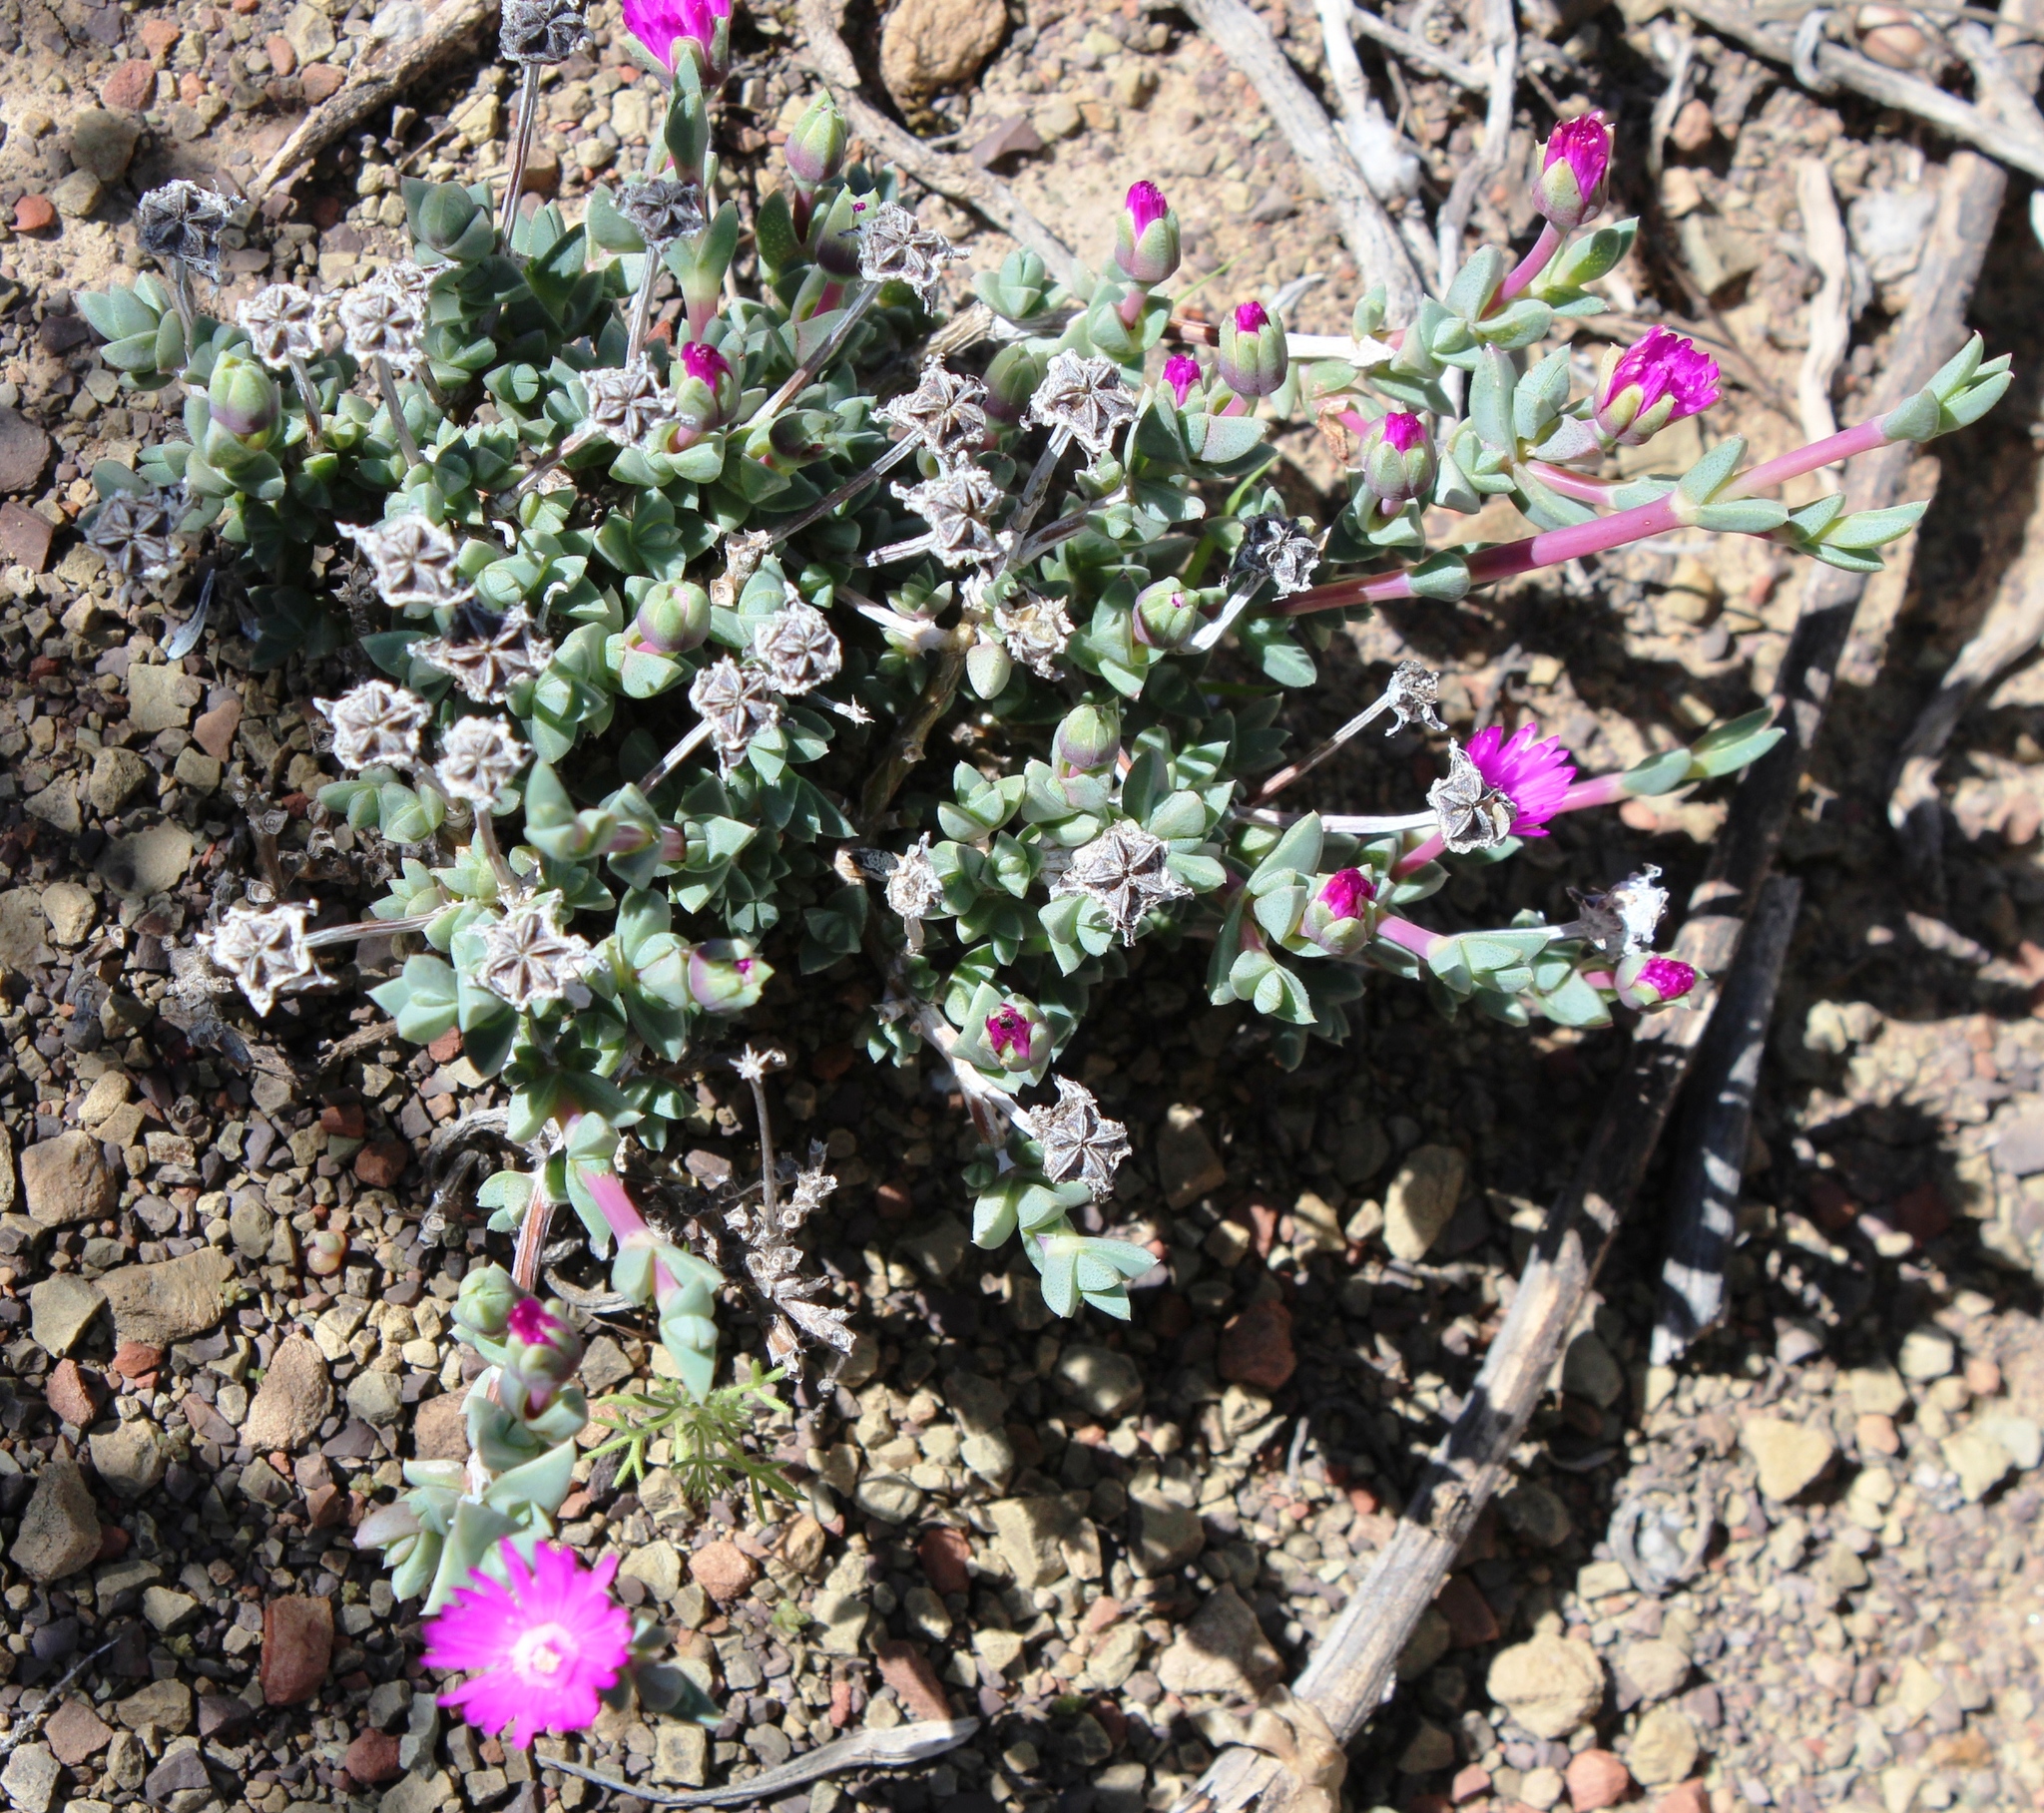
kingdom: Plantae
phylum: Tracheophyta
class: Magnoliopsida
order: Caryophyllales
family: Aizoaceae
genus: Antimima
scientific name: Antimima prolongata
